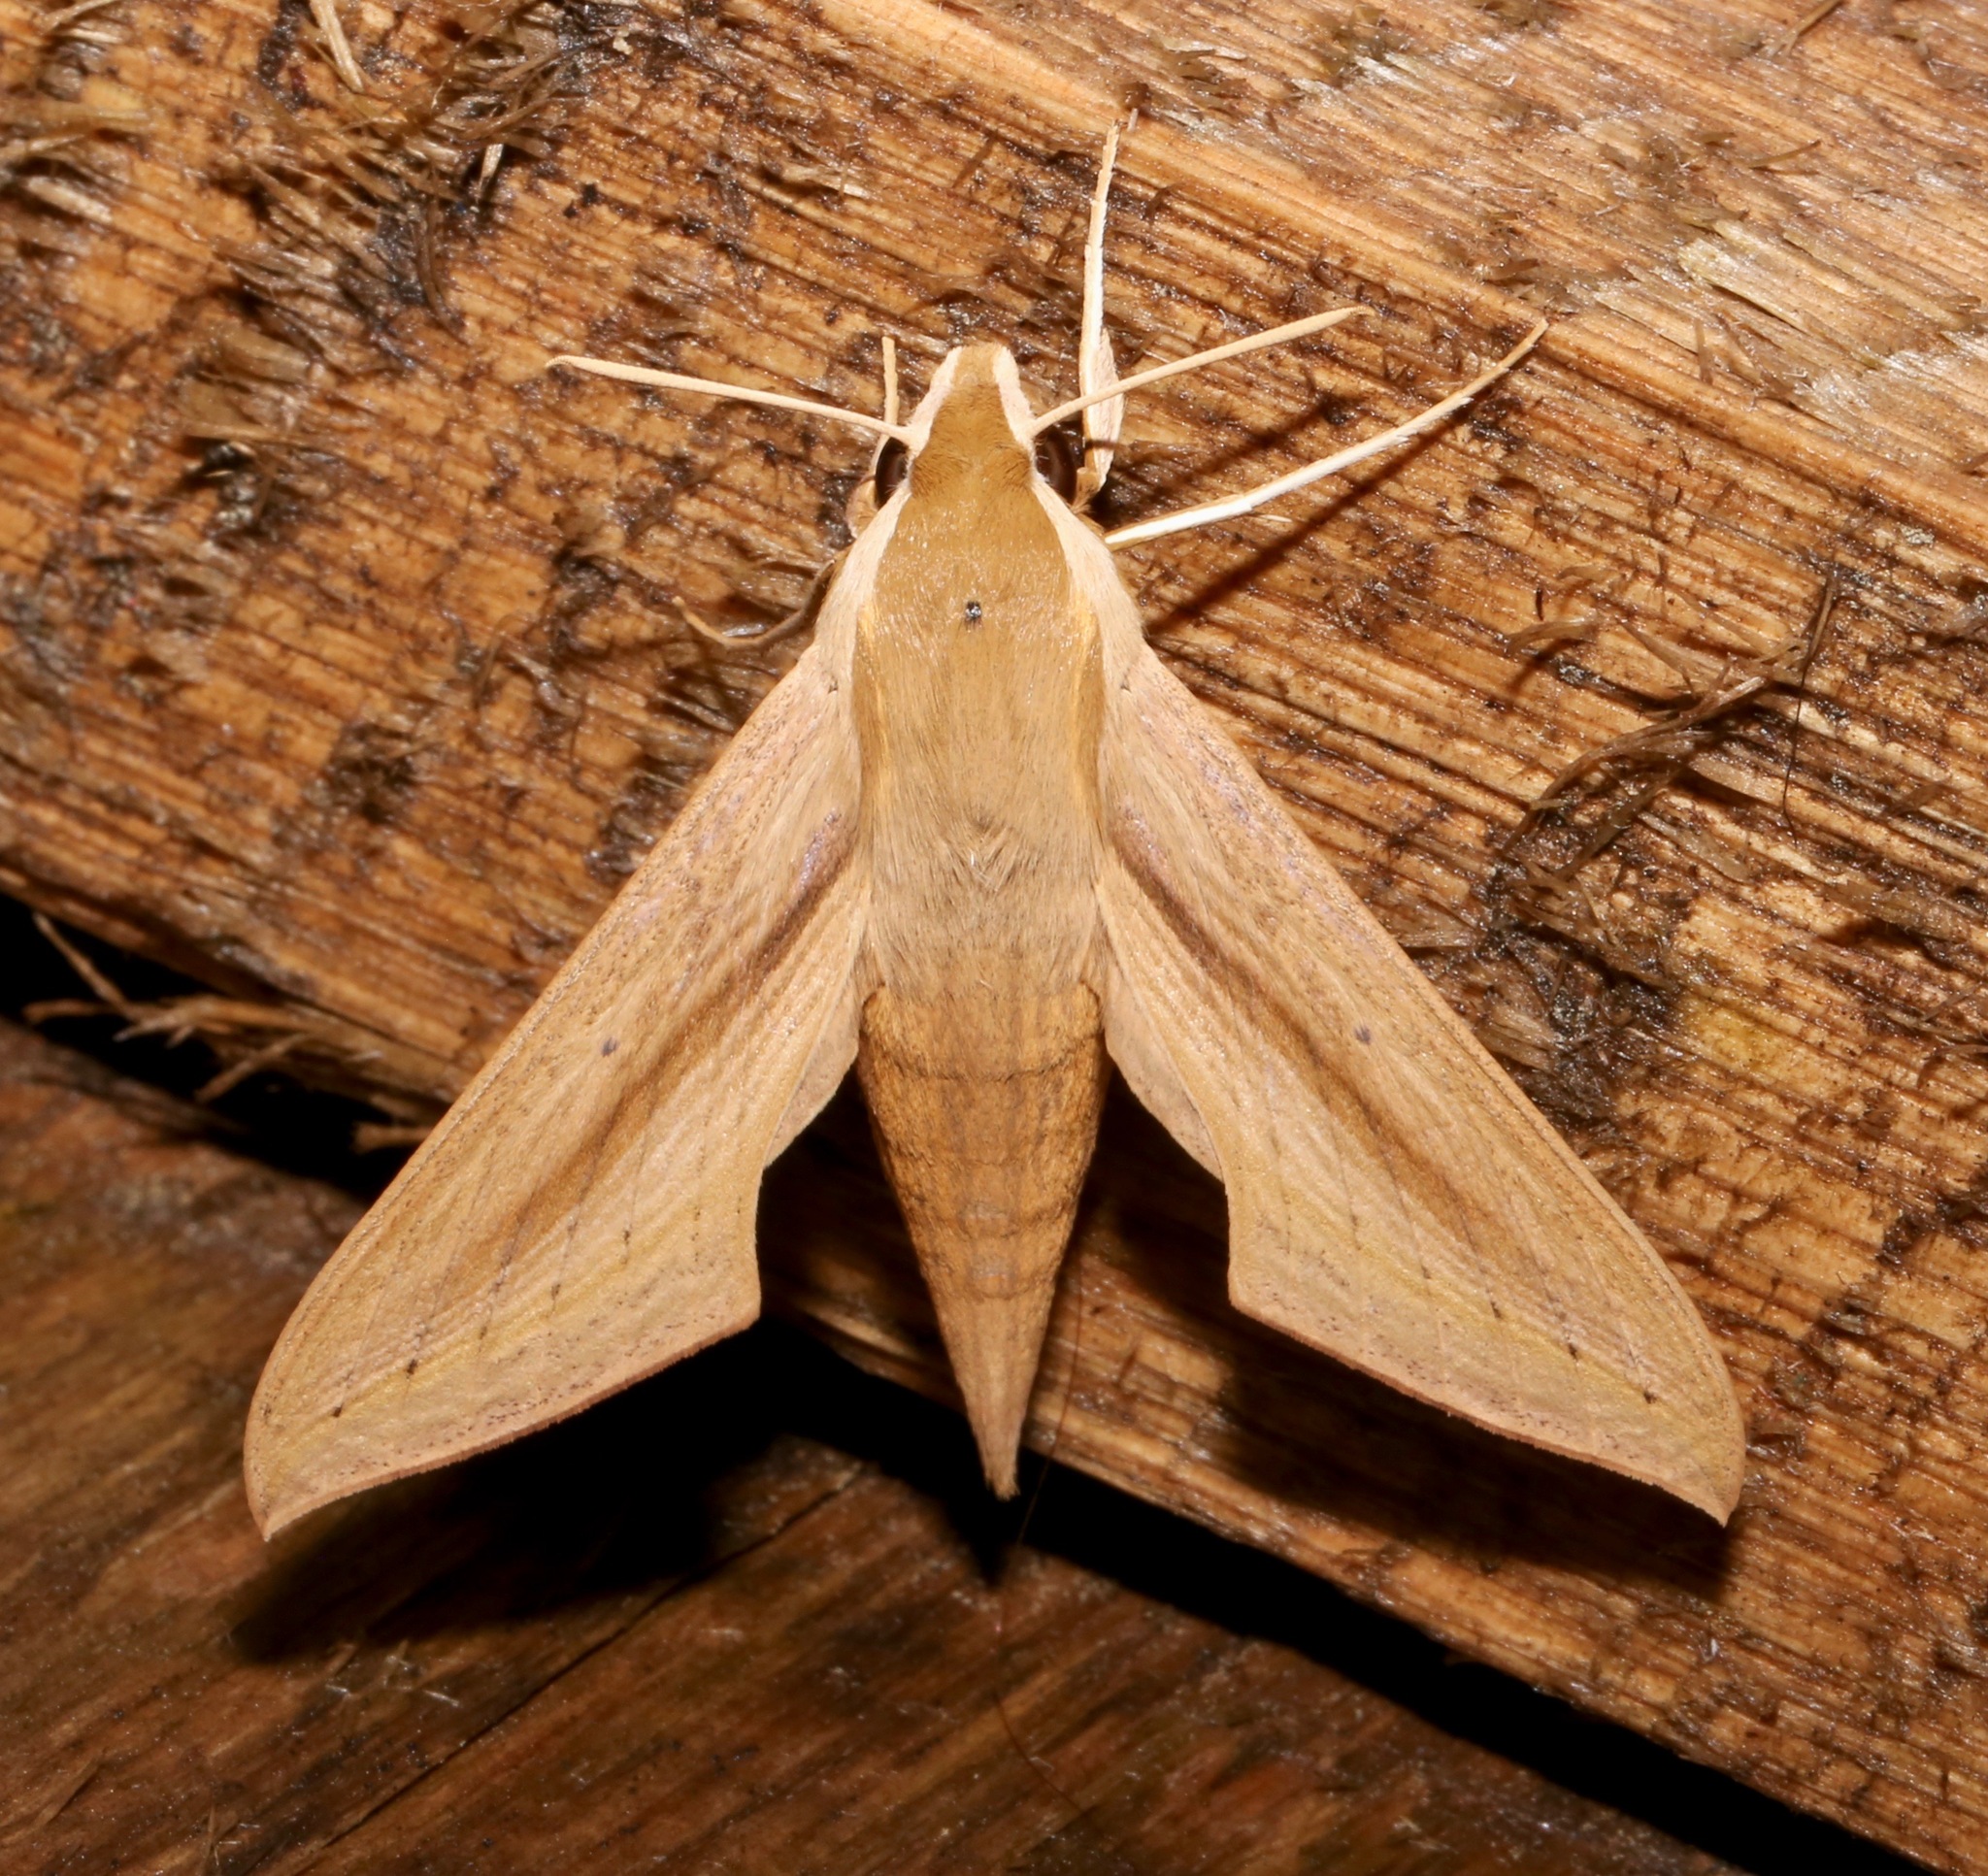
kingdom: Animalia
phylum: Arthropoda
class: Insecta
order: Lepidoptera
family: Sphingidae
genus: Hippotion
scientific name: Hippotion balsaminae
